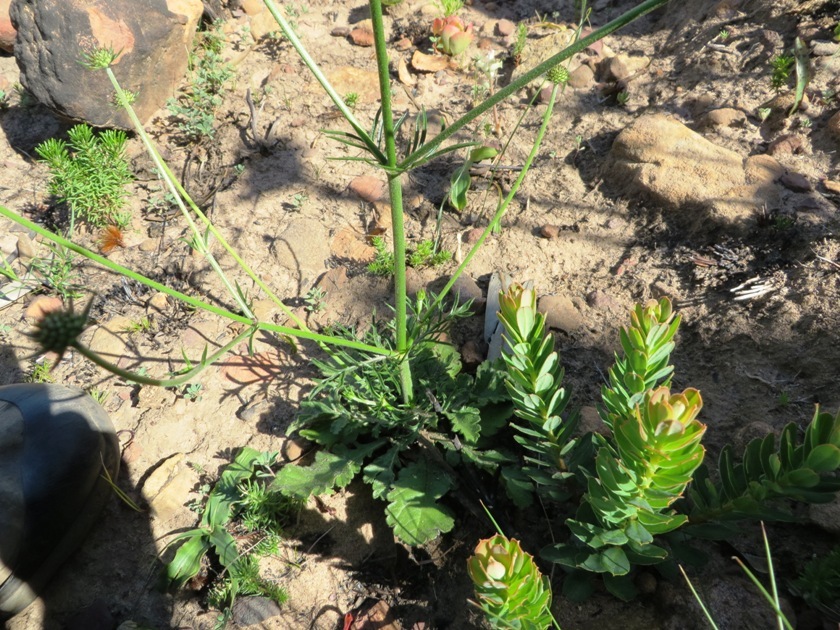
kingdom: Plantae
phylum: Tracheophyta
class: Magnoliopsida
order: Dipsacales
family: Caprifoliaceae
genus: Scabiosa
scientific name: Scabiosa columbaria
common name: Small scabious
